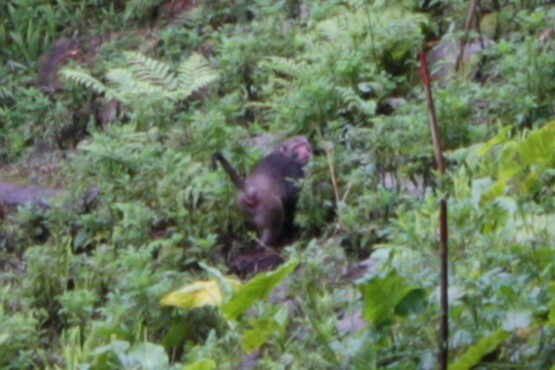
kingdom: Animalia
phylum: Chordata
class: Mammalia
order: Primates
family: Cercopithecidae
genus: Macaca
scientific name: Macaca cyclopis
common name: Formosan rock macaque
